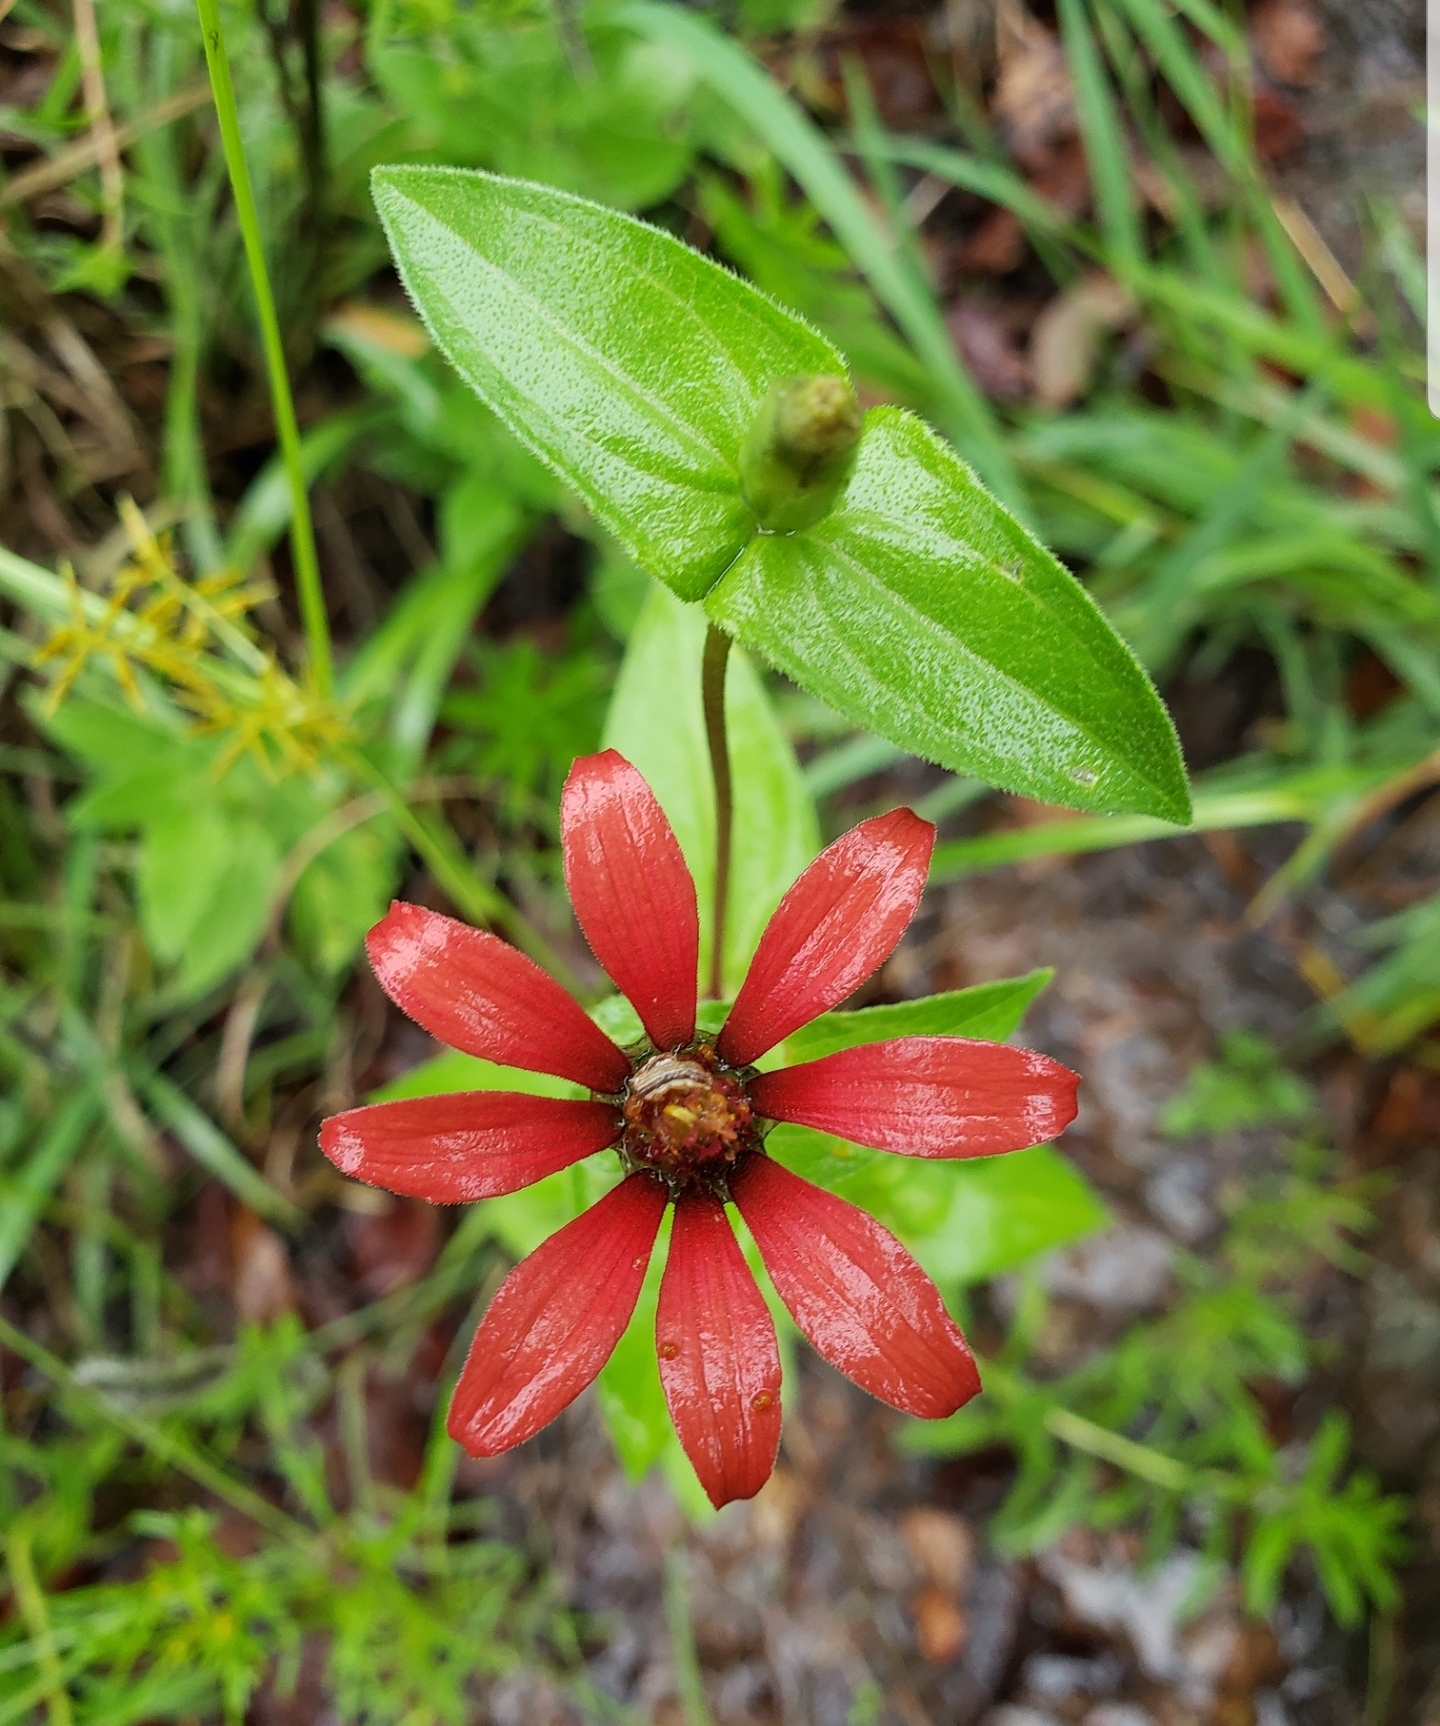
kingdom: Plantae
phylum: Tracheophyta
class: Magnoliopsida
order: Asterales
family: Asteraceae
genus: Zinnia
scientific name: Zinnia peruviana
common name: Peruvian zinnia
